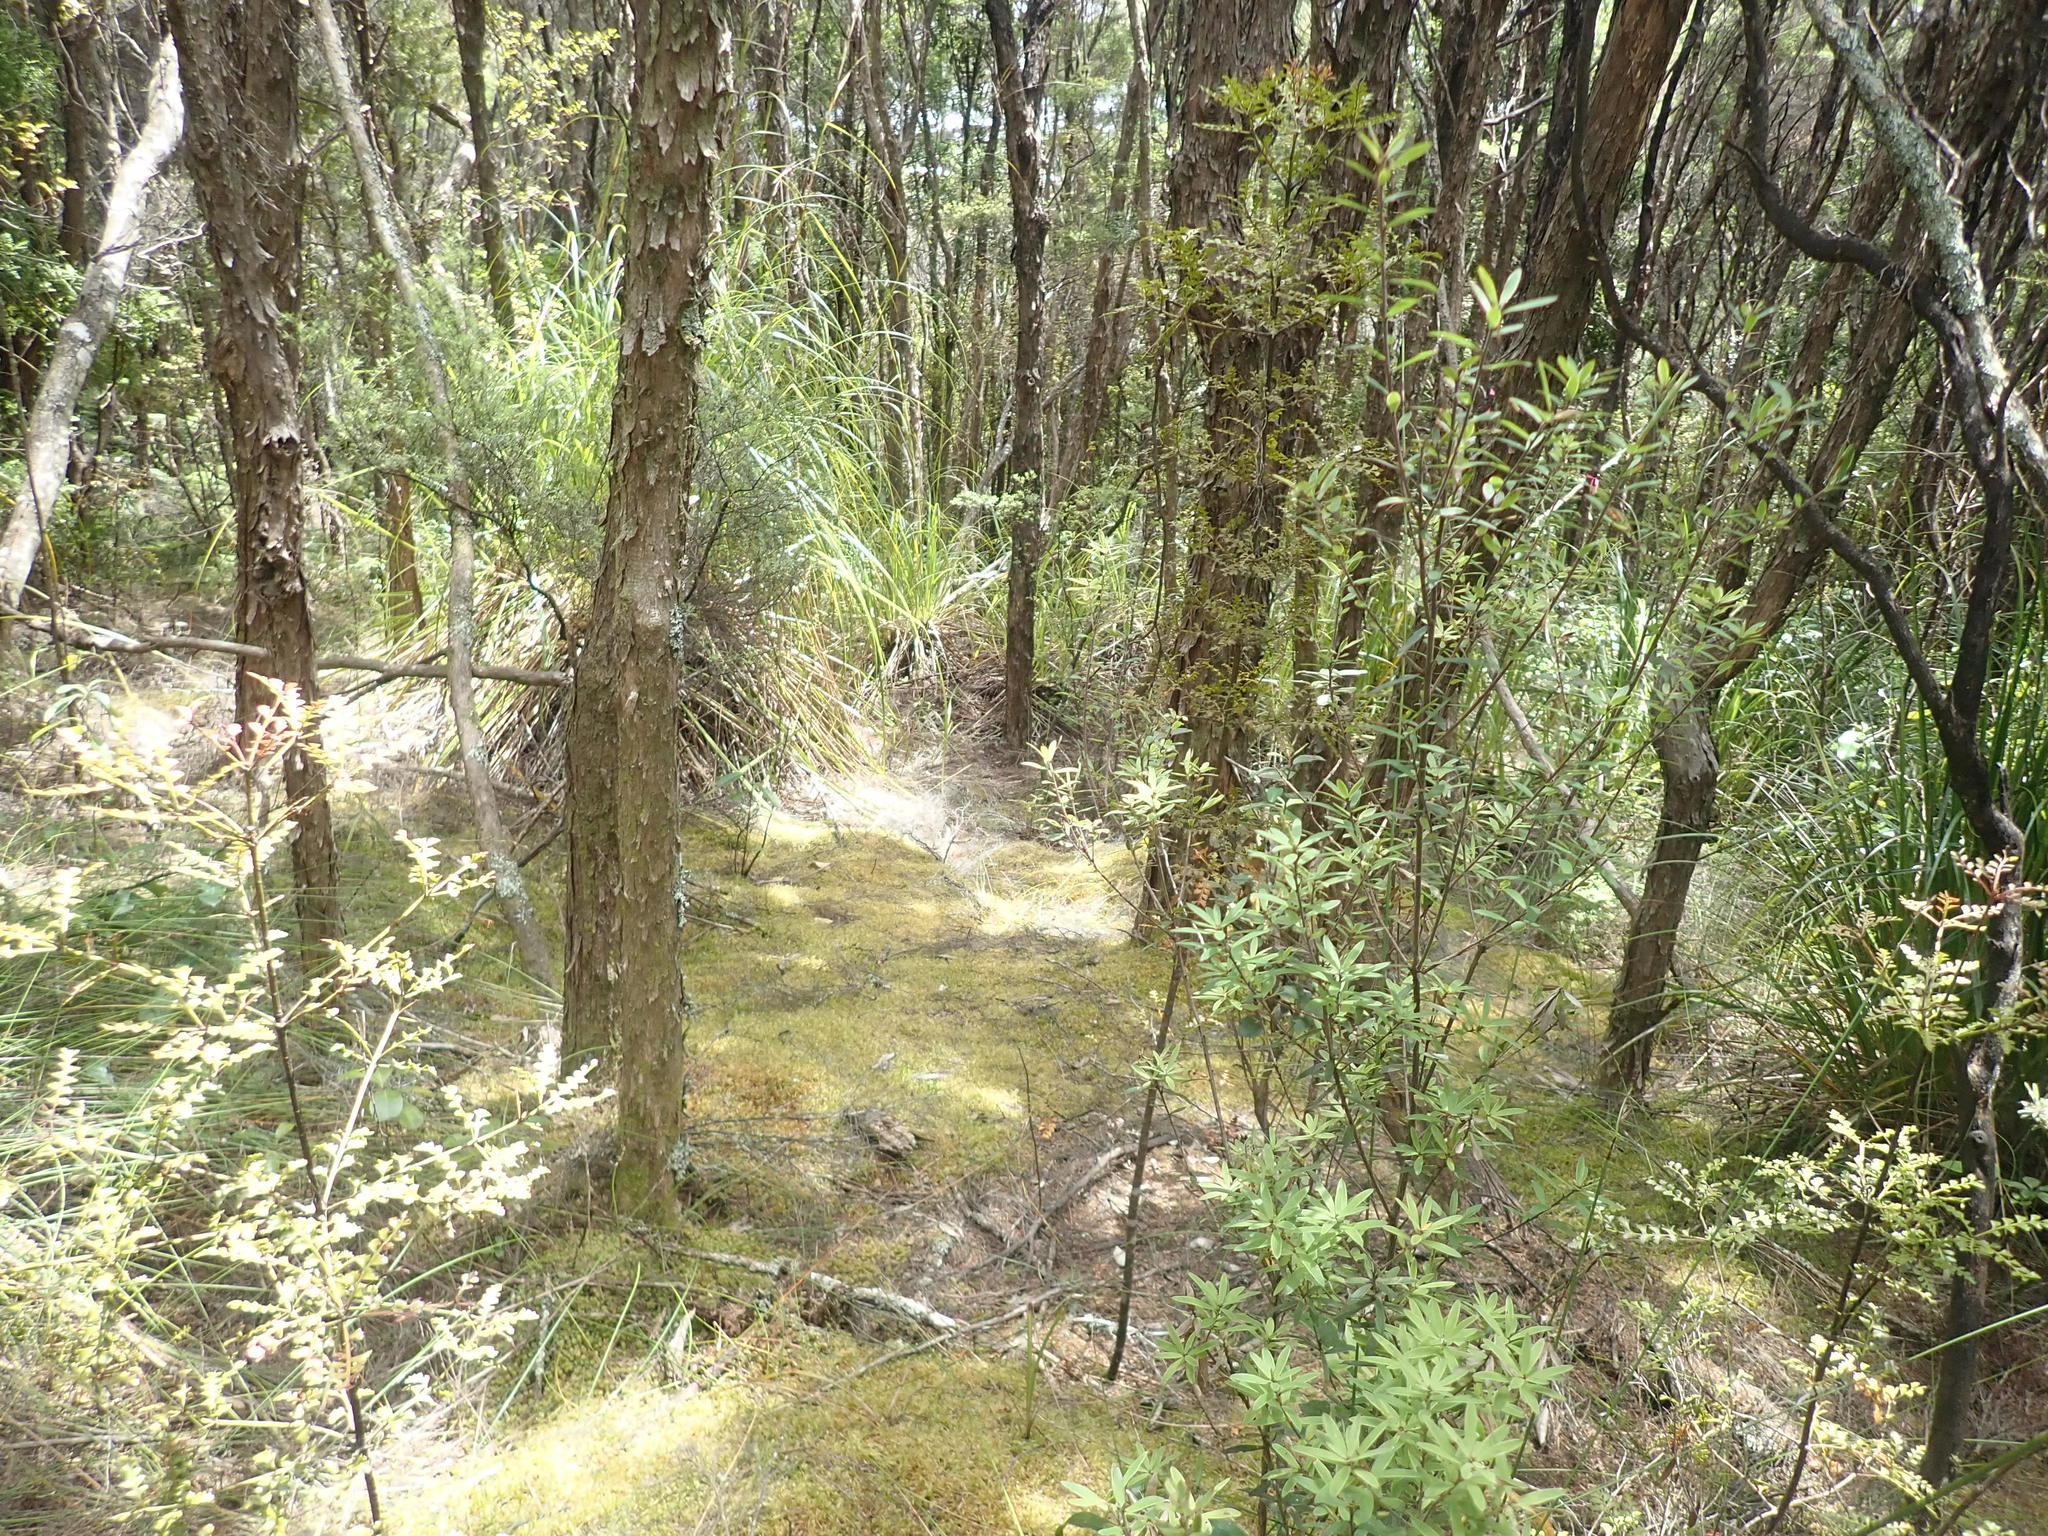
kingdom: Plantae
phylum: Tracheophyta
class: Pinopsida
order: Pinales
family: Phyllocladaceae
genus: Phyllocladus
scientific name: Phyllocladus trichomanoides
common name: Celery pine
